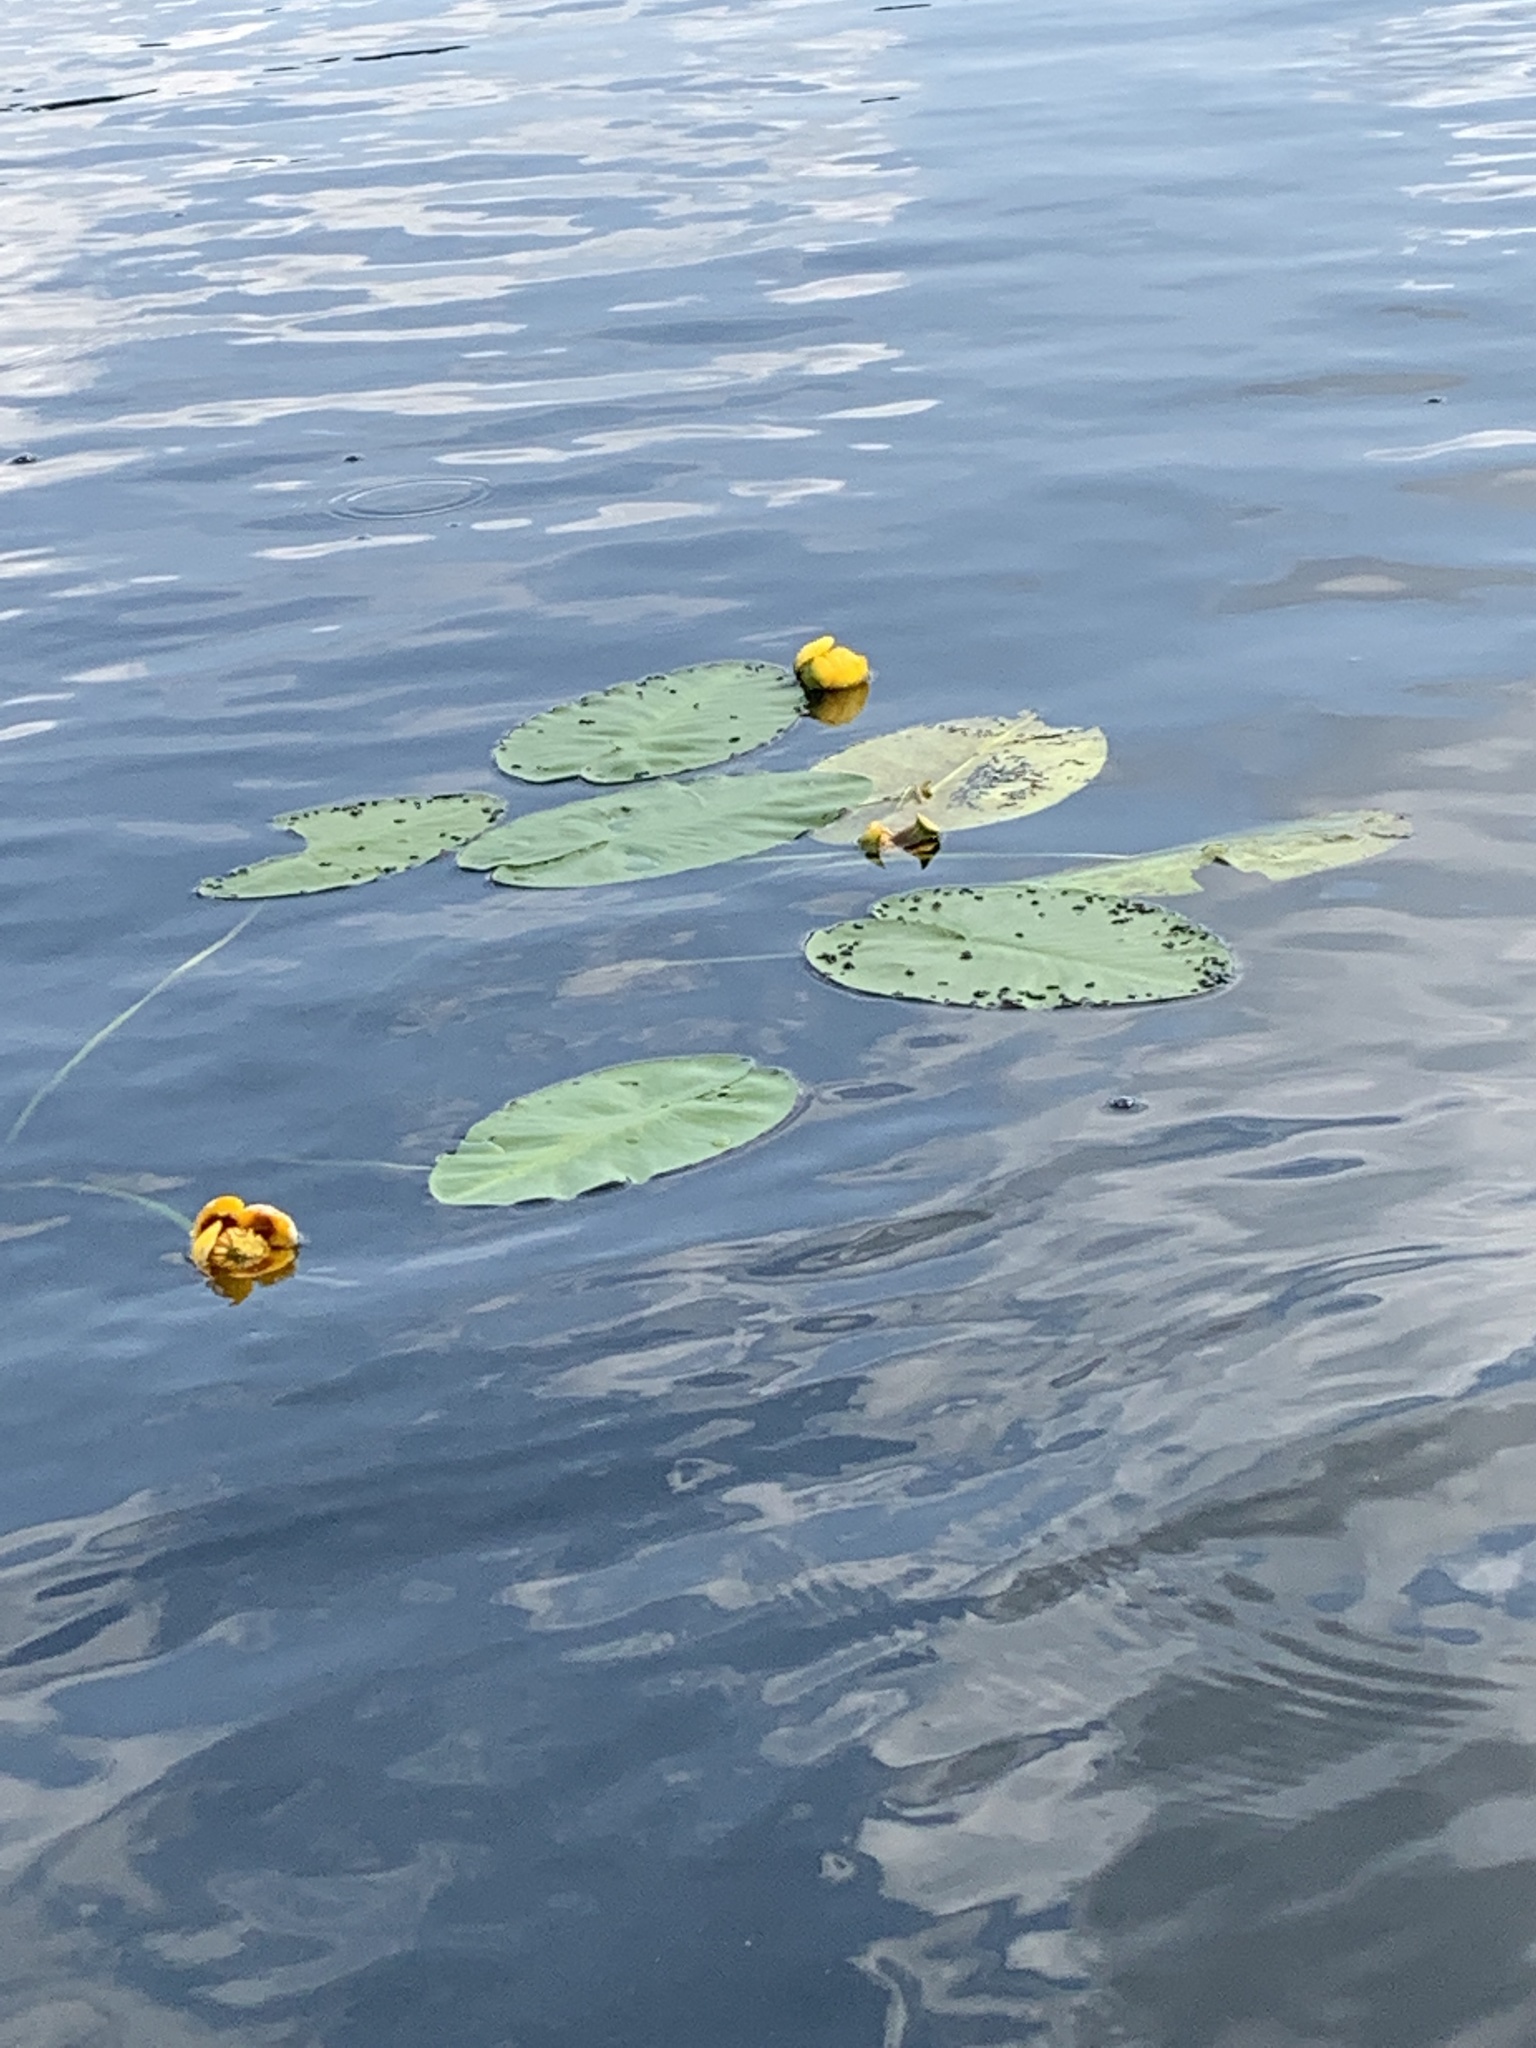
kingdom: Plantae
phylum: Tracheophyta
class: Magnoliopsida
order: Nymphaeales
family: Nymphaeaceae
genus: Nuphar
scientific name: Nuphar variegata
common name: Beaver-root
